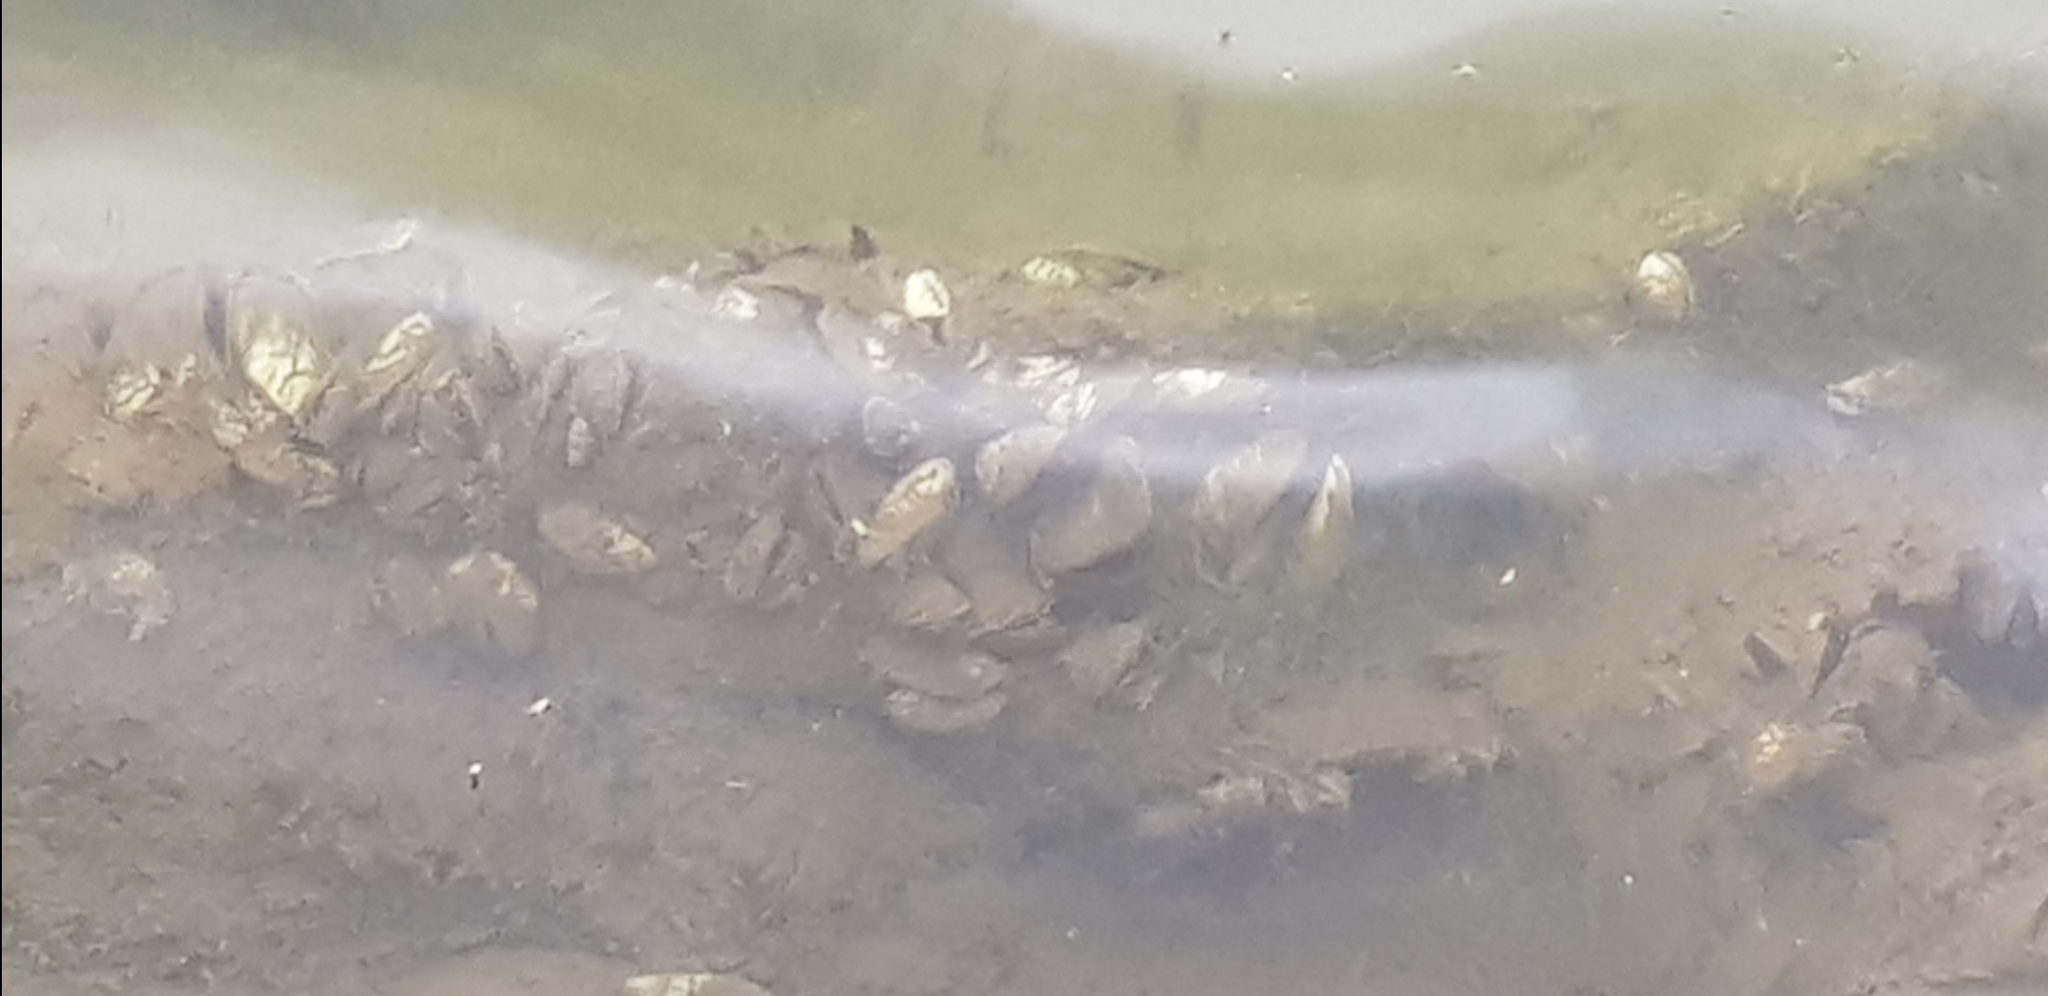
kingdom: Animalia
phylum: Mollusca
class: Bivalvia
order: Myida
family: Dreissenidae
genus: Dreissena
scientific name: Dreissena polymorpha
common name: Zebra mussel
